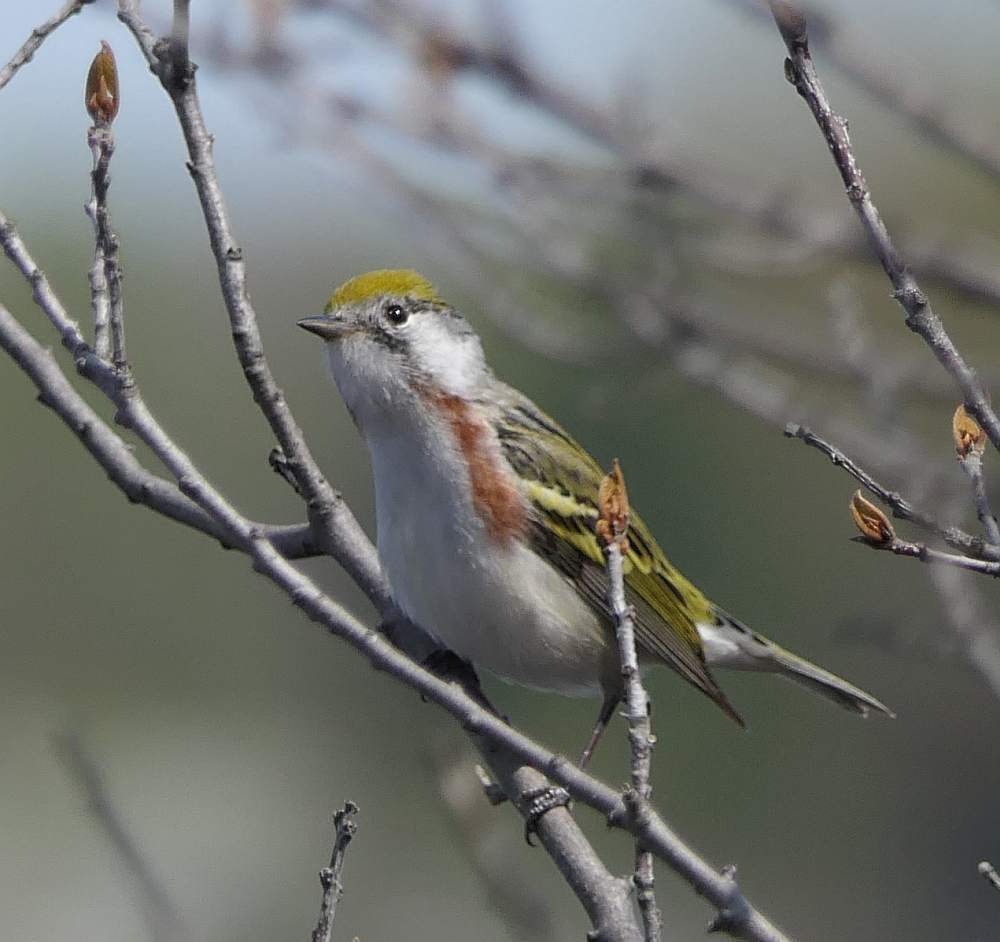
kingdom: Animalia
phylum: Chordata
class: Aves
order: Passeriformes
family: Parulidae
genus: Setophaga
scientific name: Setophaga pensylvanica
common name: Chestnut-sided warbler
